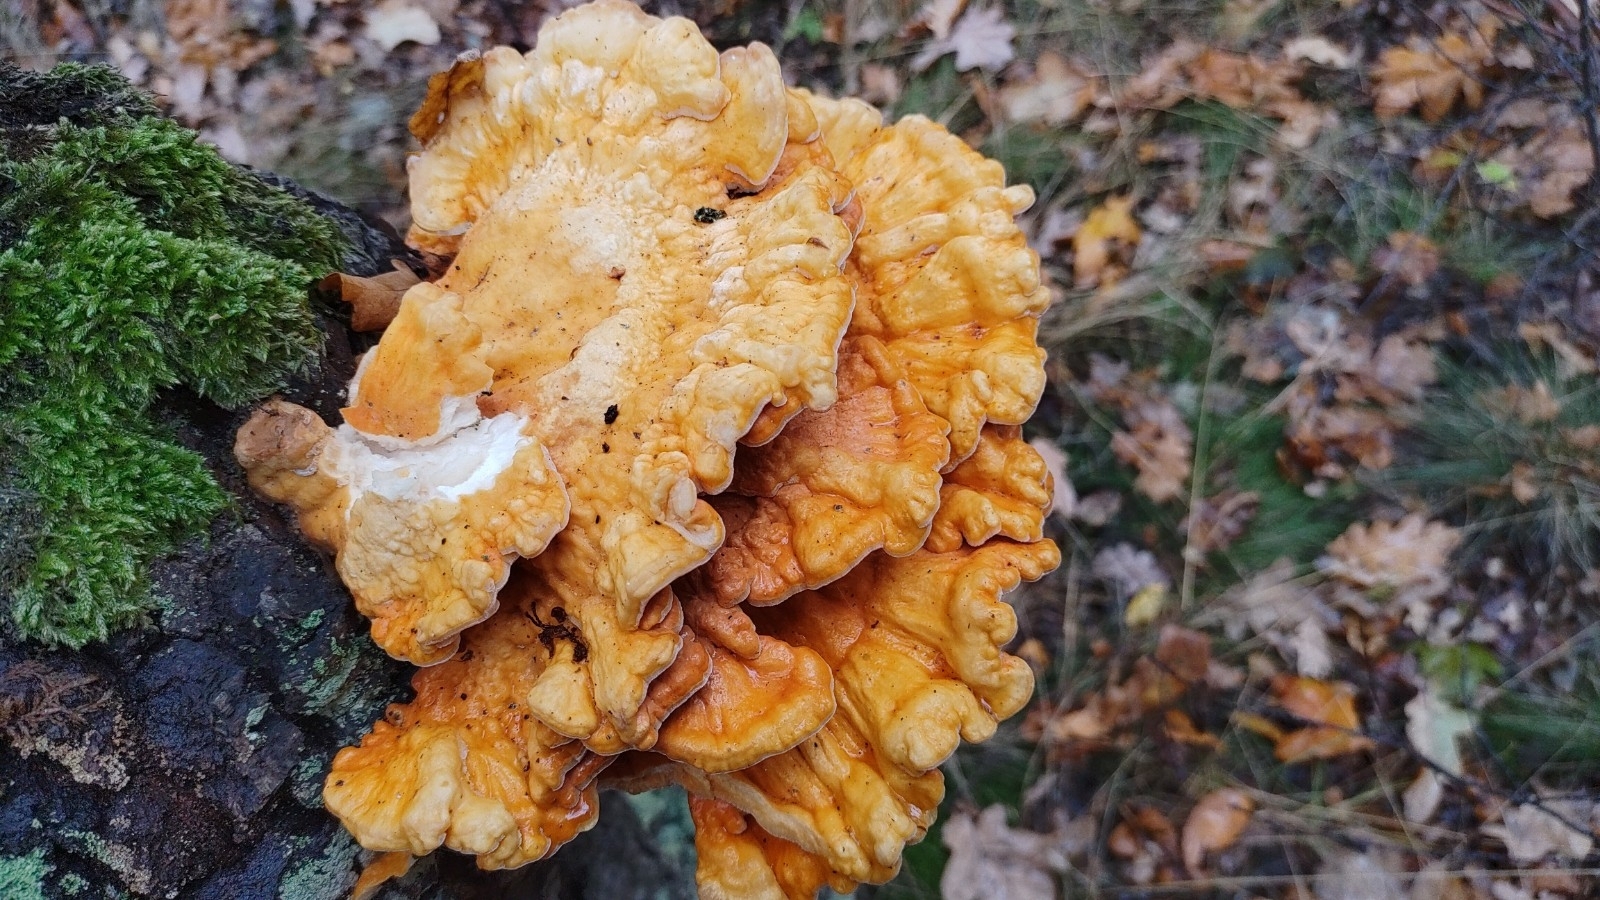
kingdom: Fungi
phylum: Basidiomycota
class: Agaricomycetes
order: Polyporales
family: Laetiporaceae
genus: Laetiporus
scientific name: Laetiporus sulphureus
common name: Chicken of the woods
